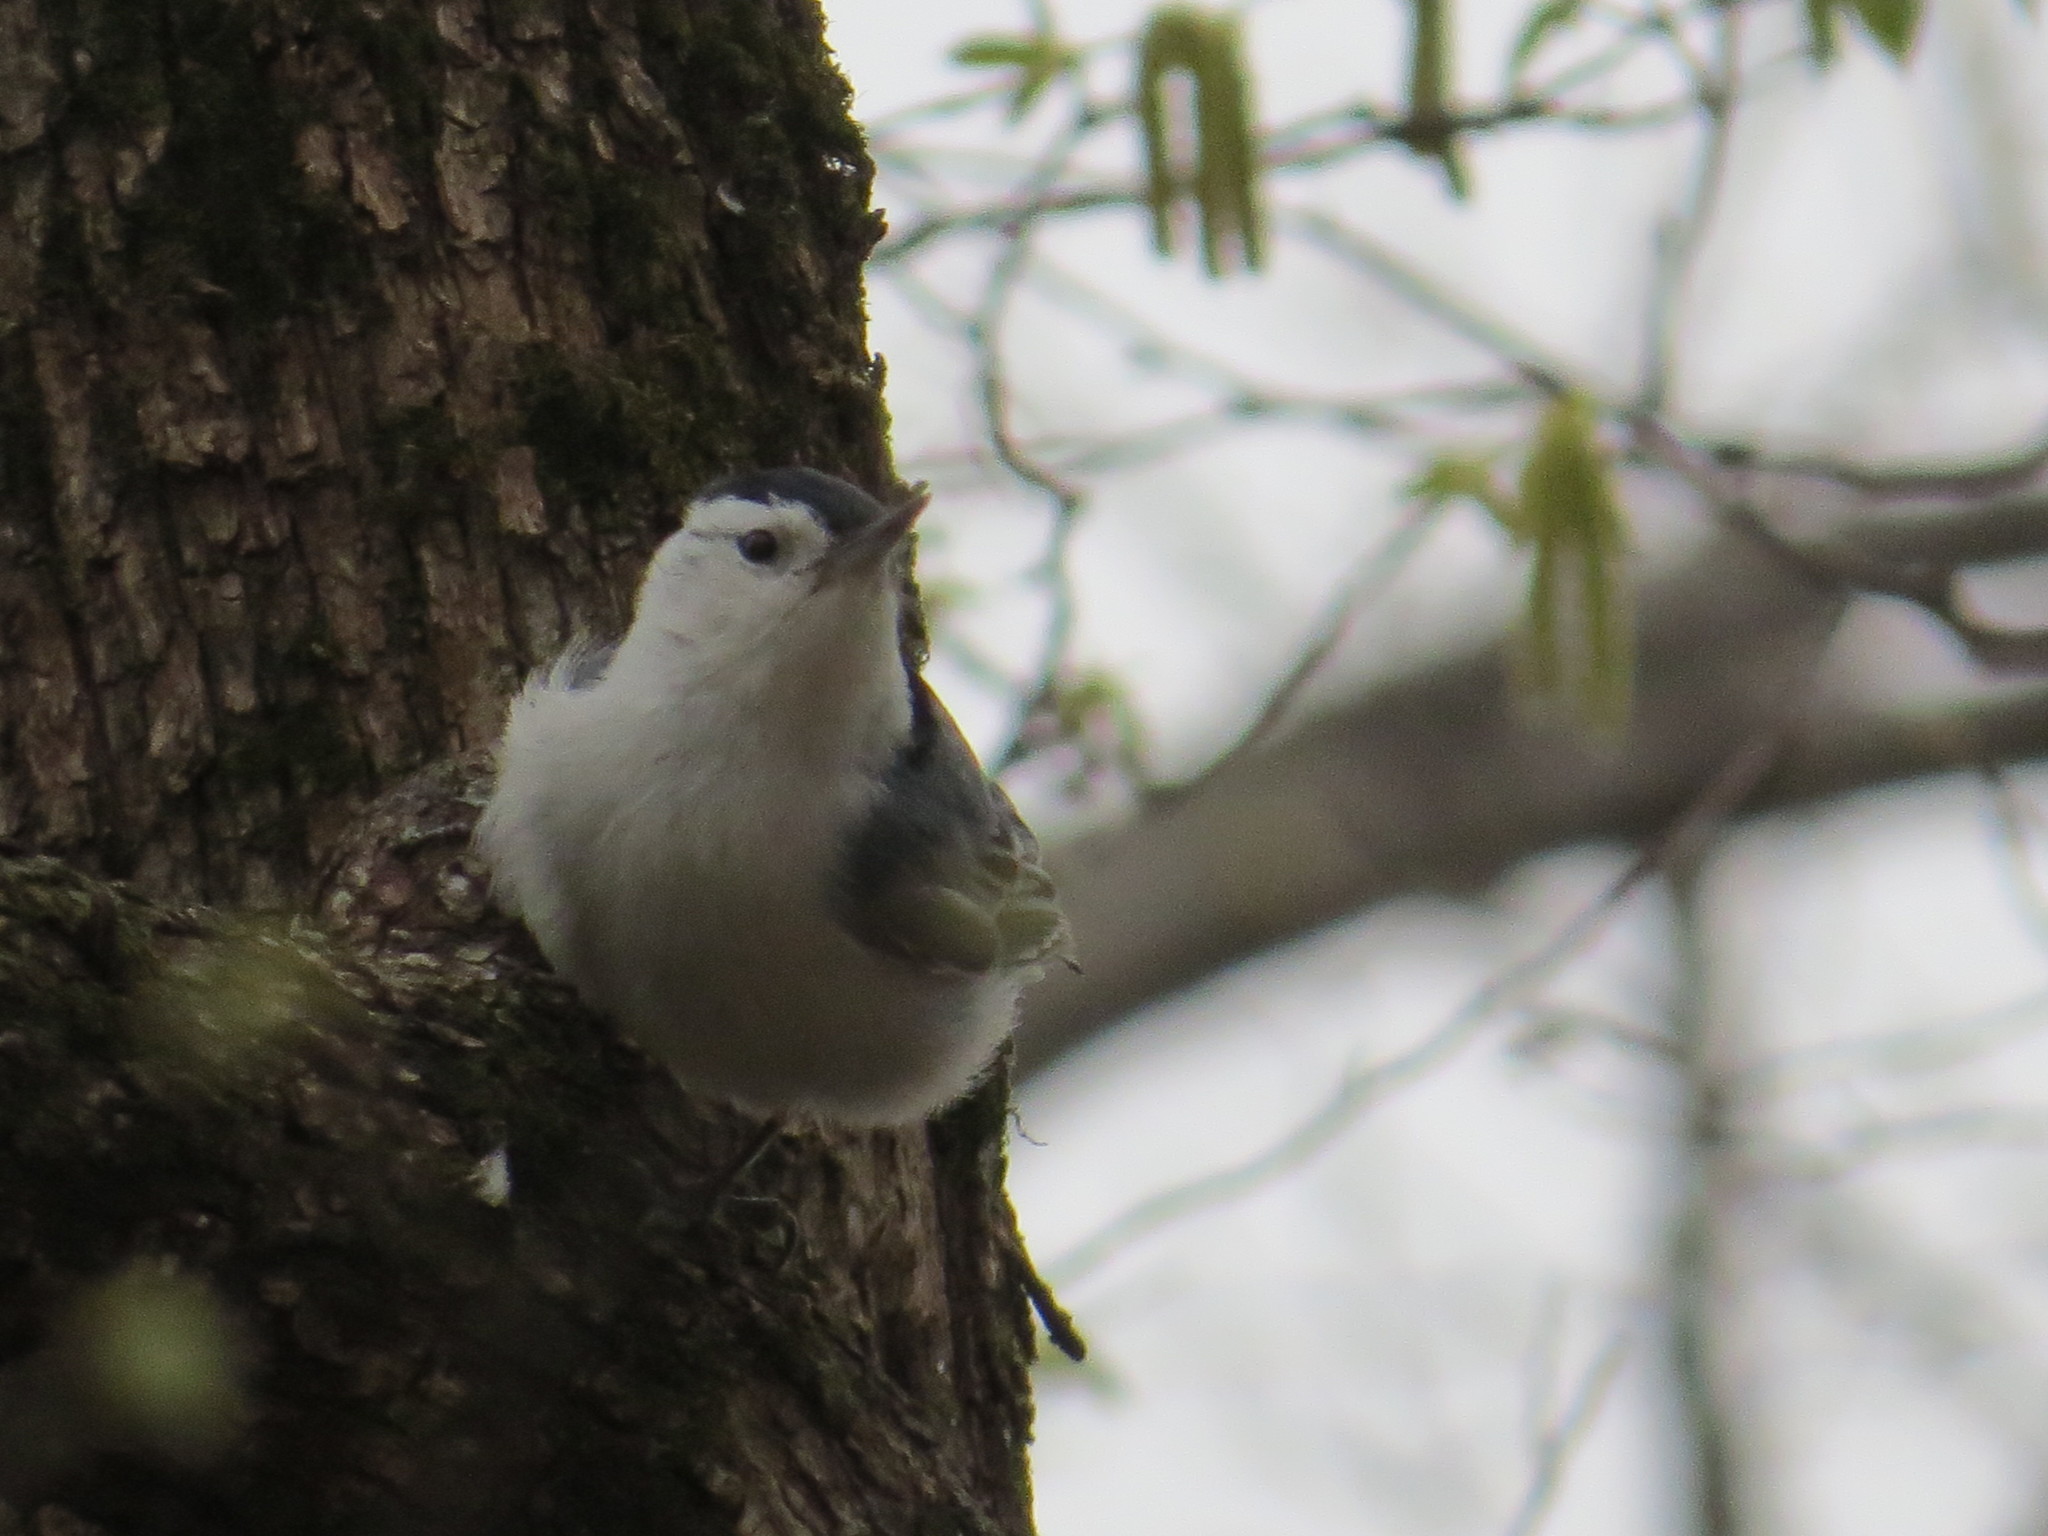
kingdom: Animalia
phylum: Chordata
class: Aves
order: Passeriformes
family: Sittidae
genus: Sitta
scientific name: Sitta carolinensis
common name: White-breasted nuthatch
